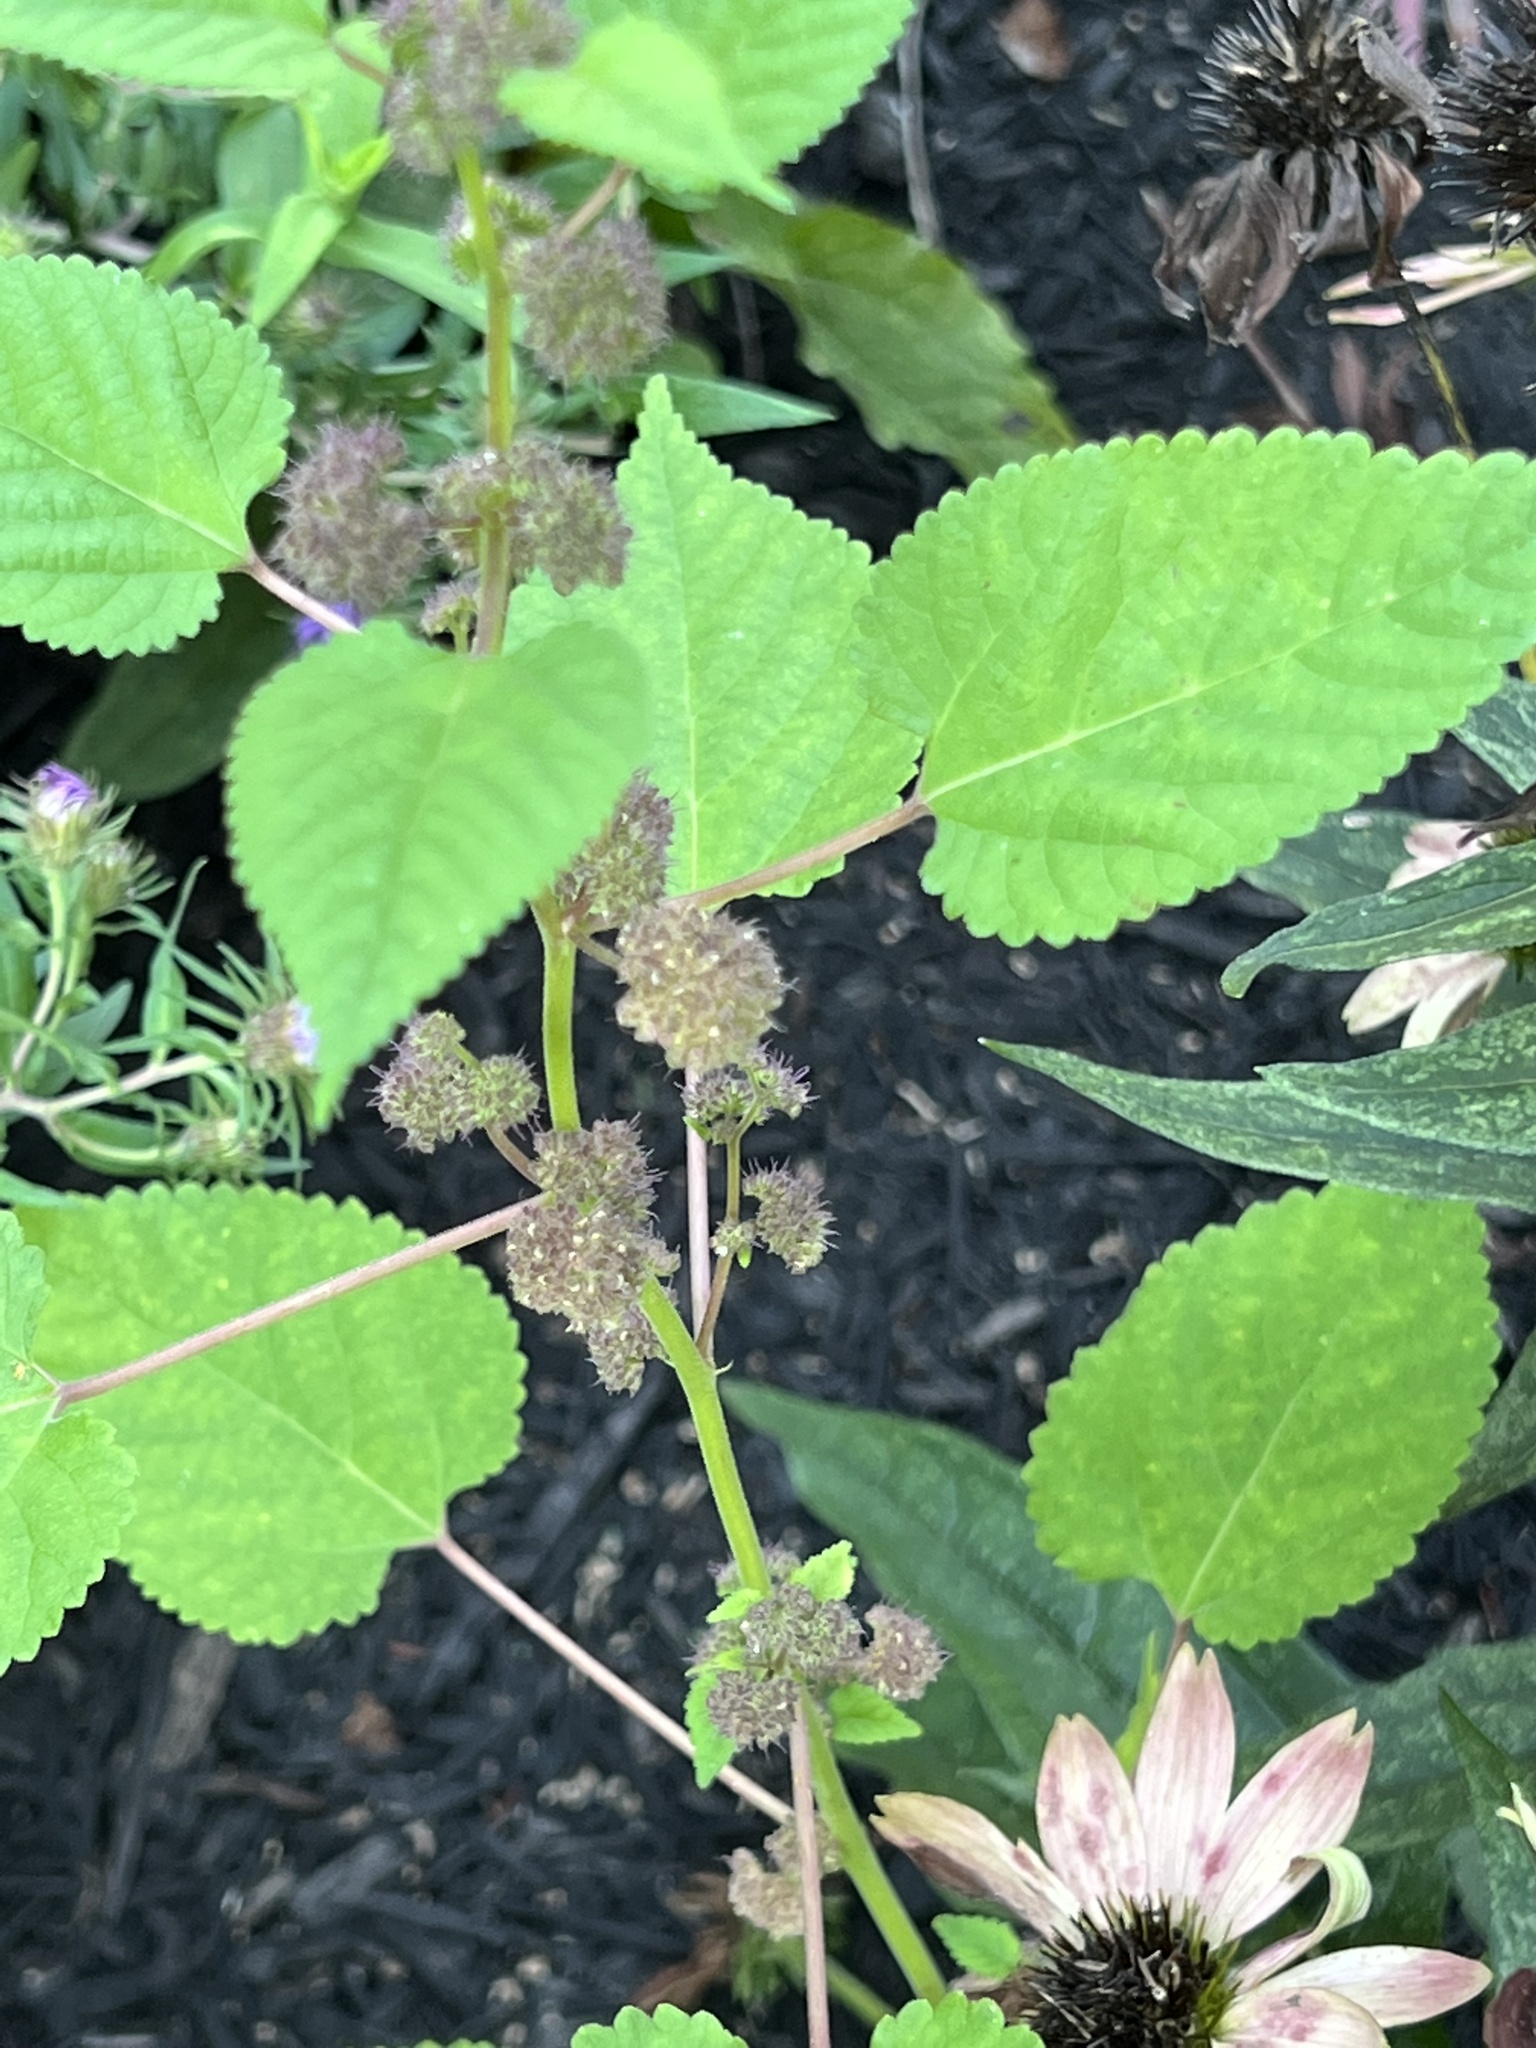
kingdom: Plantae
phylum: Tracheophyta
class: Magnoliopsida
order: Rosales
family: Moraceae
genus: Fatoua
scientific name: Fatoua villosa
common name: Hairy crabweed
